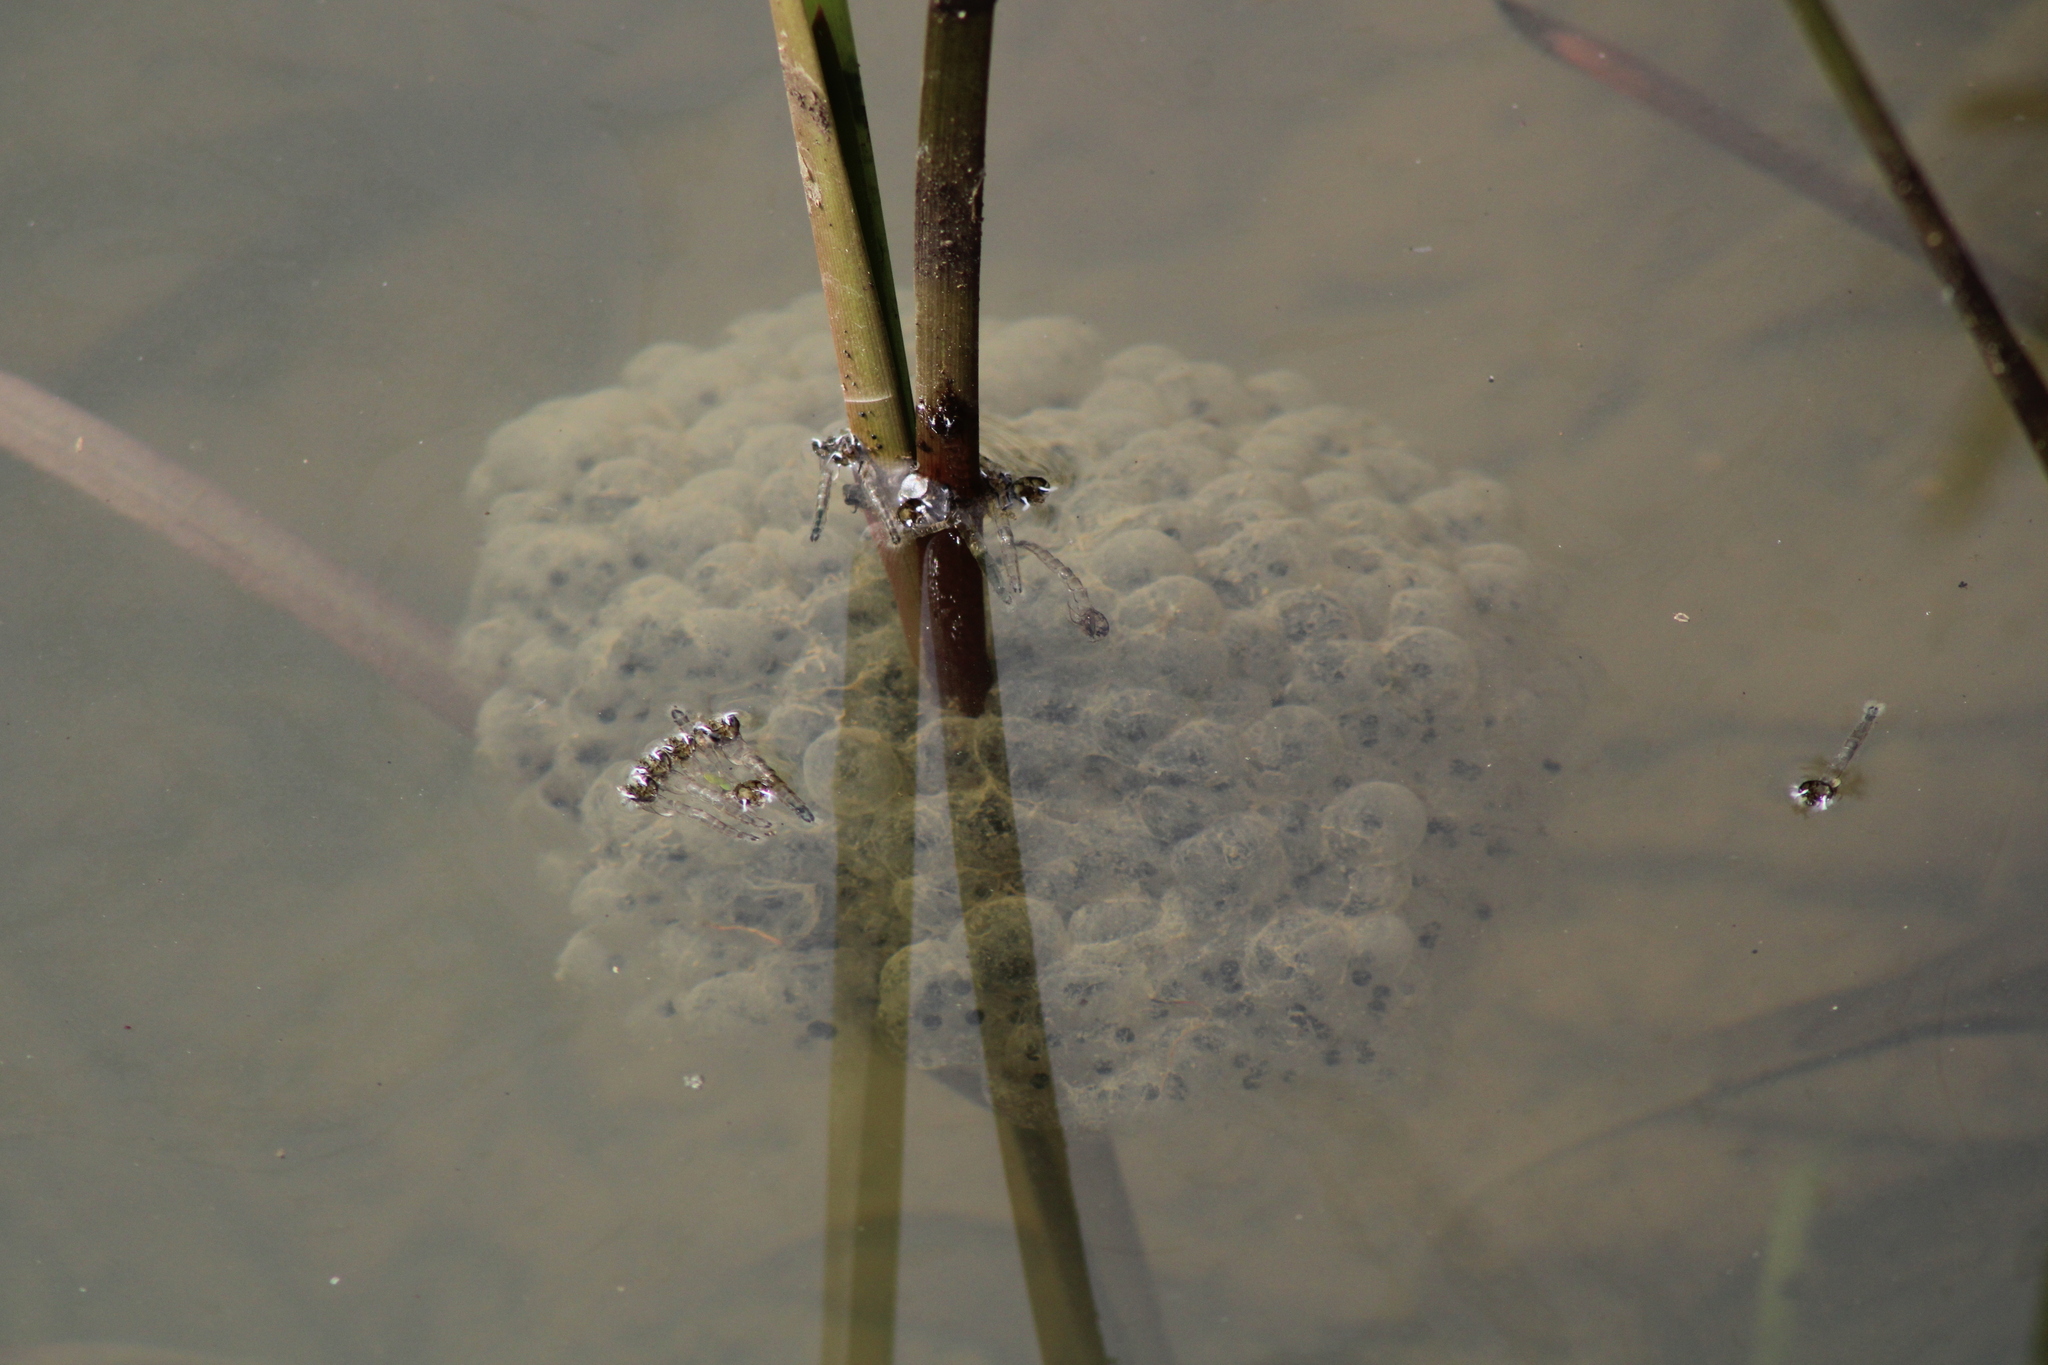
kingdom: Animalia
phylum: Chordata
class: Amphibia
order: Anura
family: Ranidae
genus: Rana
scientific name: Rana dalmatina
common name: Agile frog
